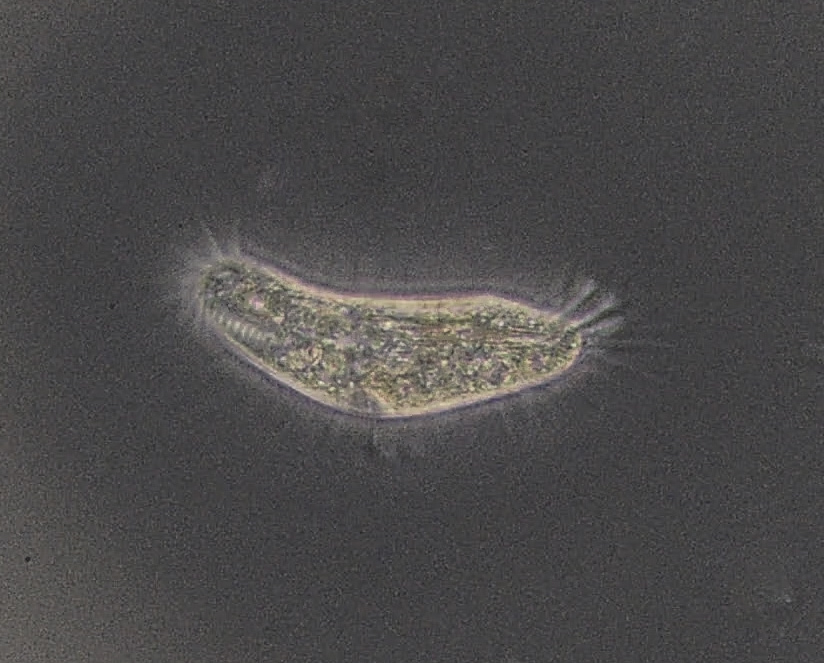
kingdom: Chromista
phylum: Ciliophora
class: Hypotrichea
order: Oxytrichida
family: Oxytrichidae
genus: Tachysoma
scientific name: Tachysoma pellionellum
